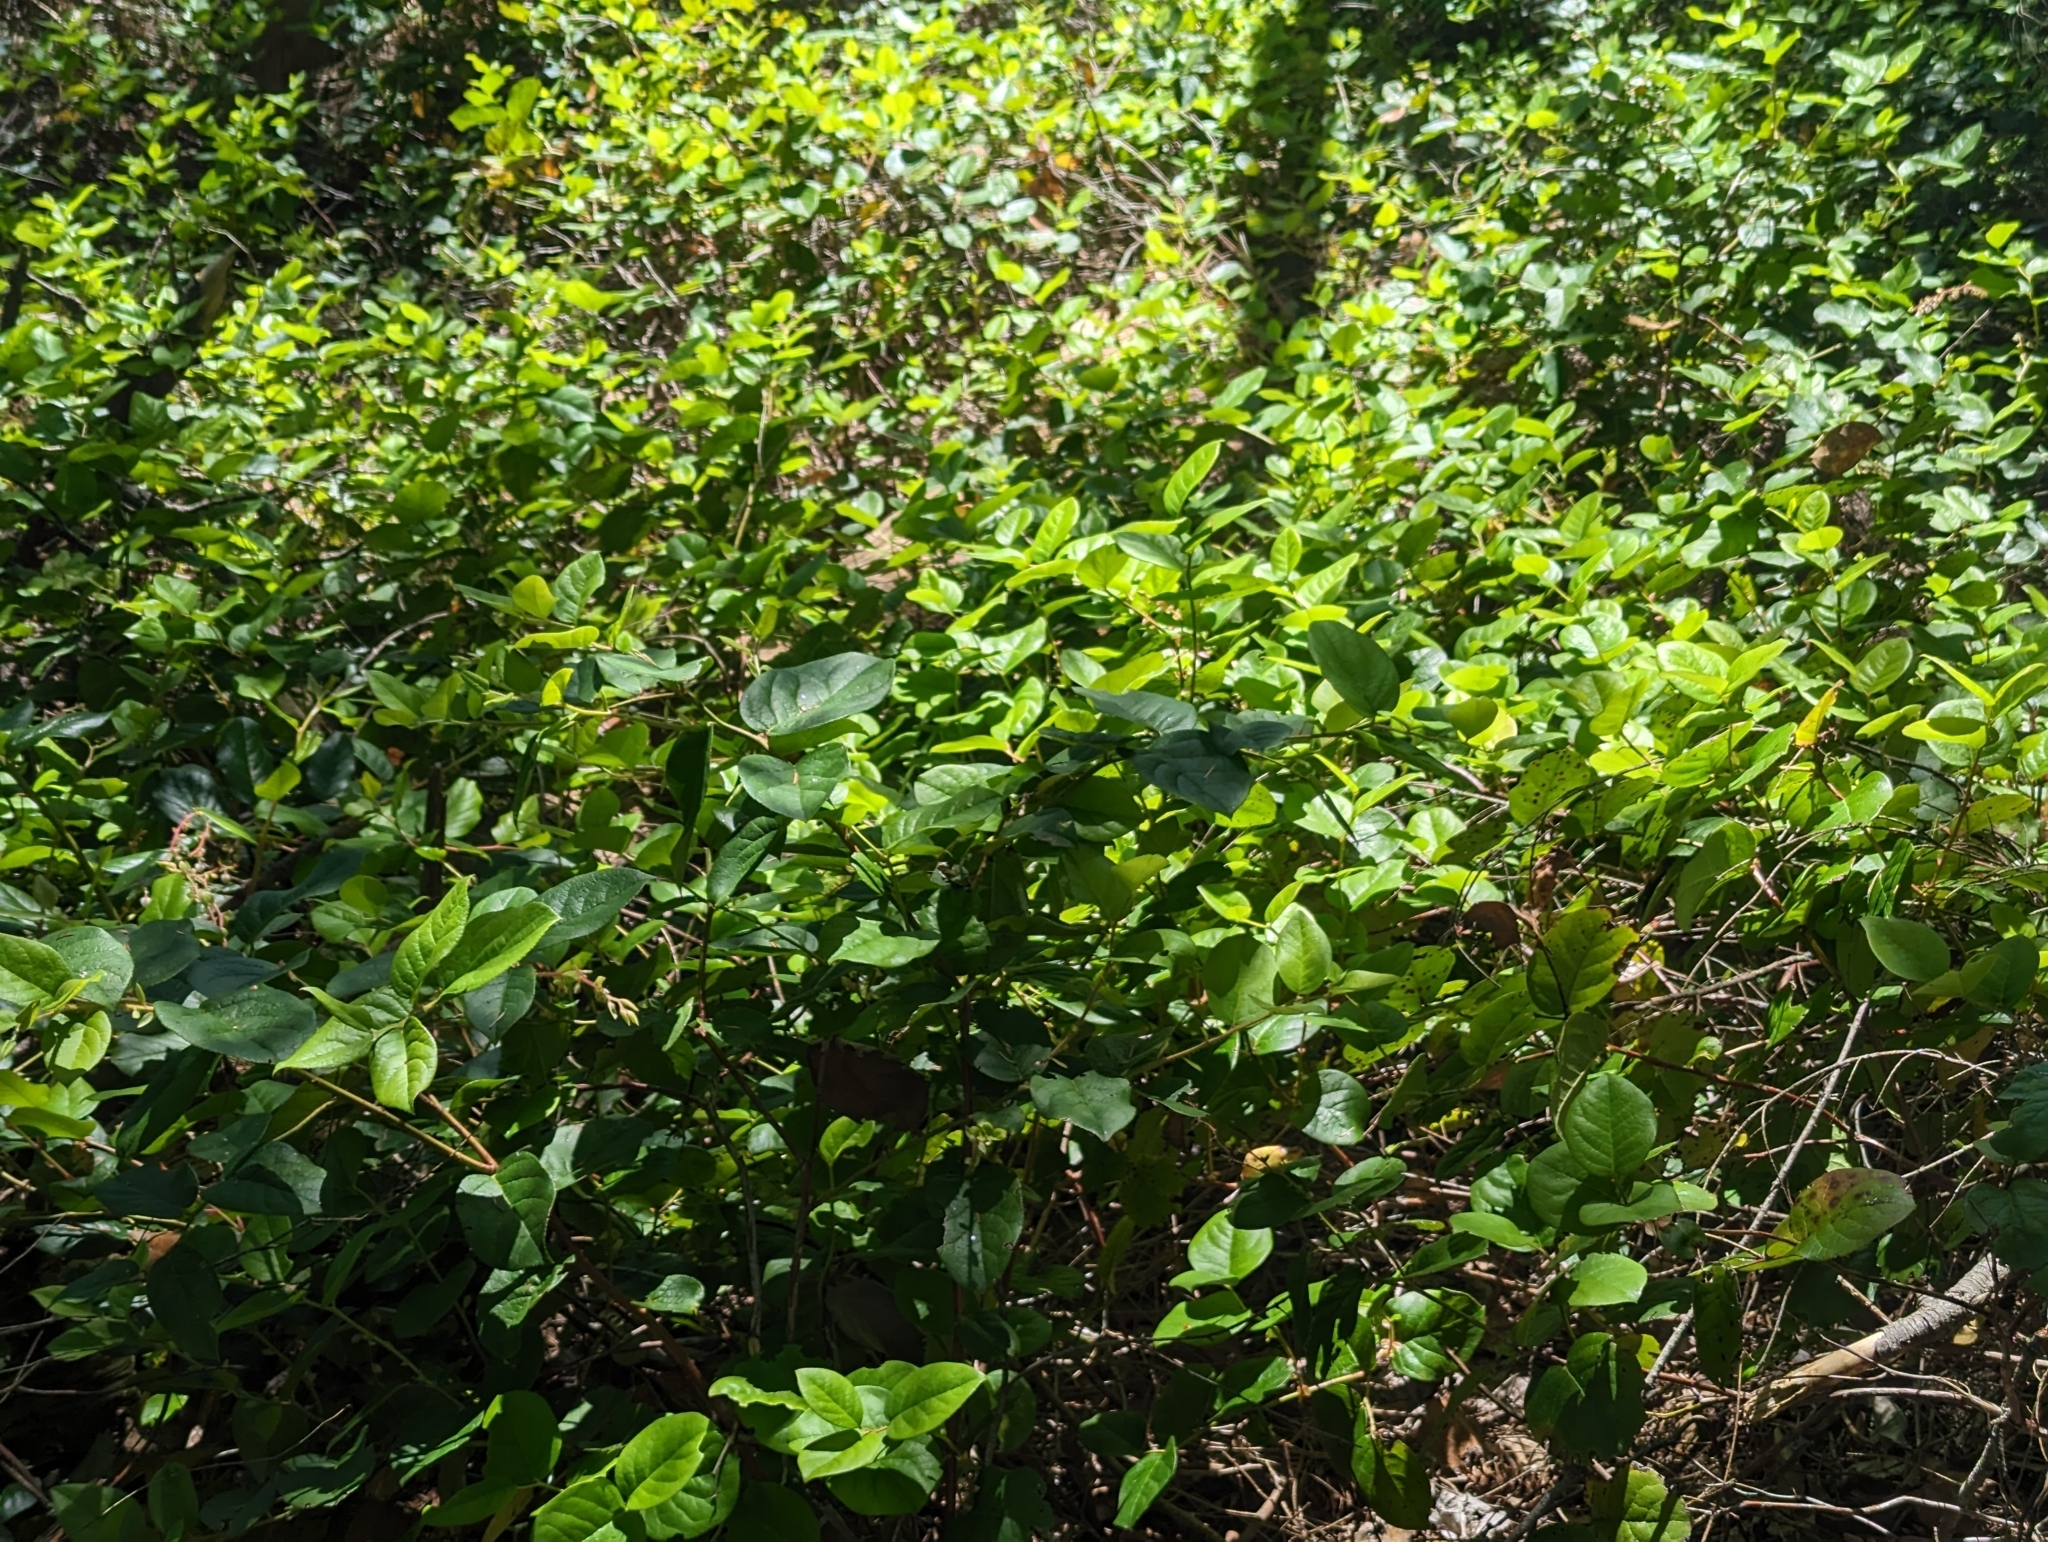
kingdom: Plantae
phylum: Tracheophyta
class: Magnoliopsida
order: Ericales
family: Ericaceae
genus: Gaultheria
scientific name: Gaultheria shallon
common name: Shallon
